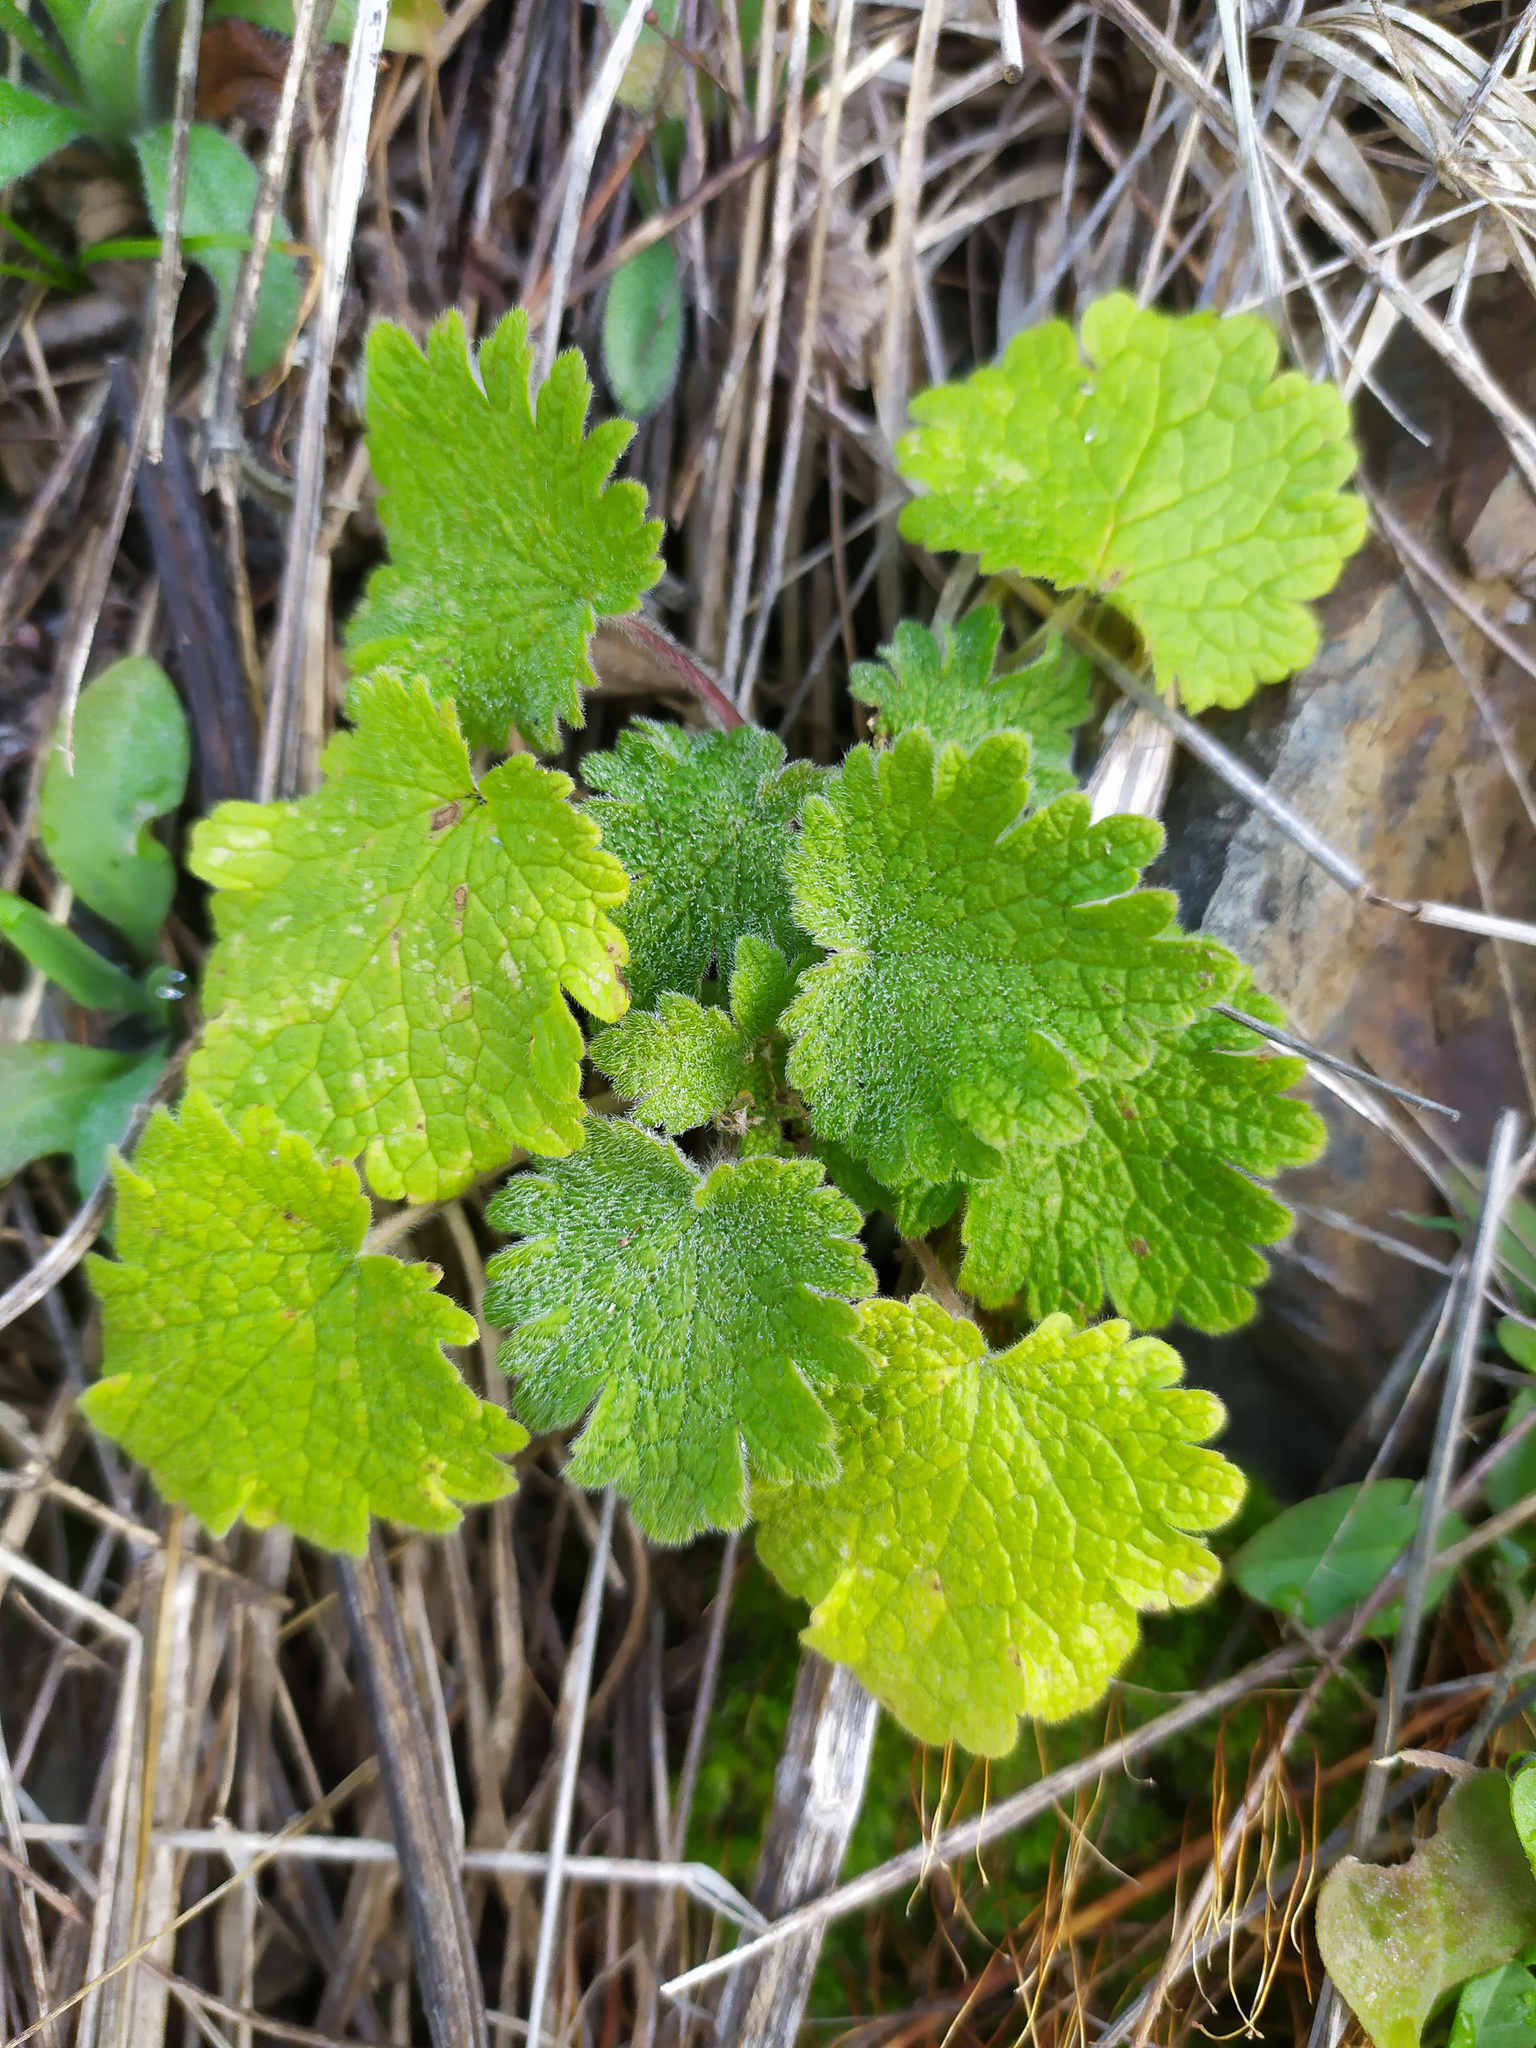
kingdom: Plantae
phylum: Tracheophyta
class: Magnoliopsida
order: Lamiales
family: Lamiaceae
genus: Leonurus
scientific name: Leonurus quinquelobatus
